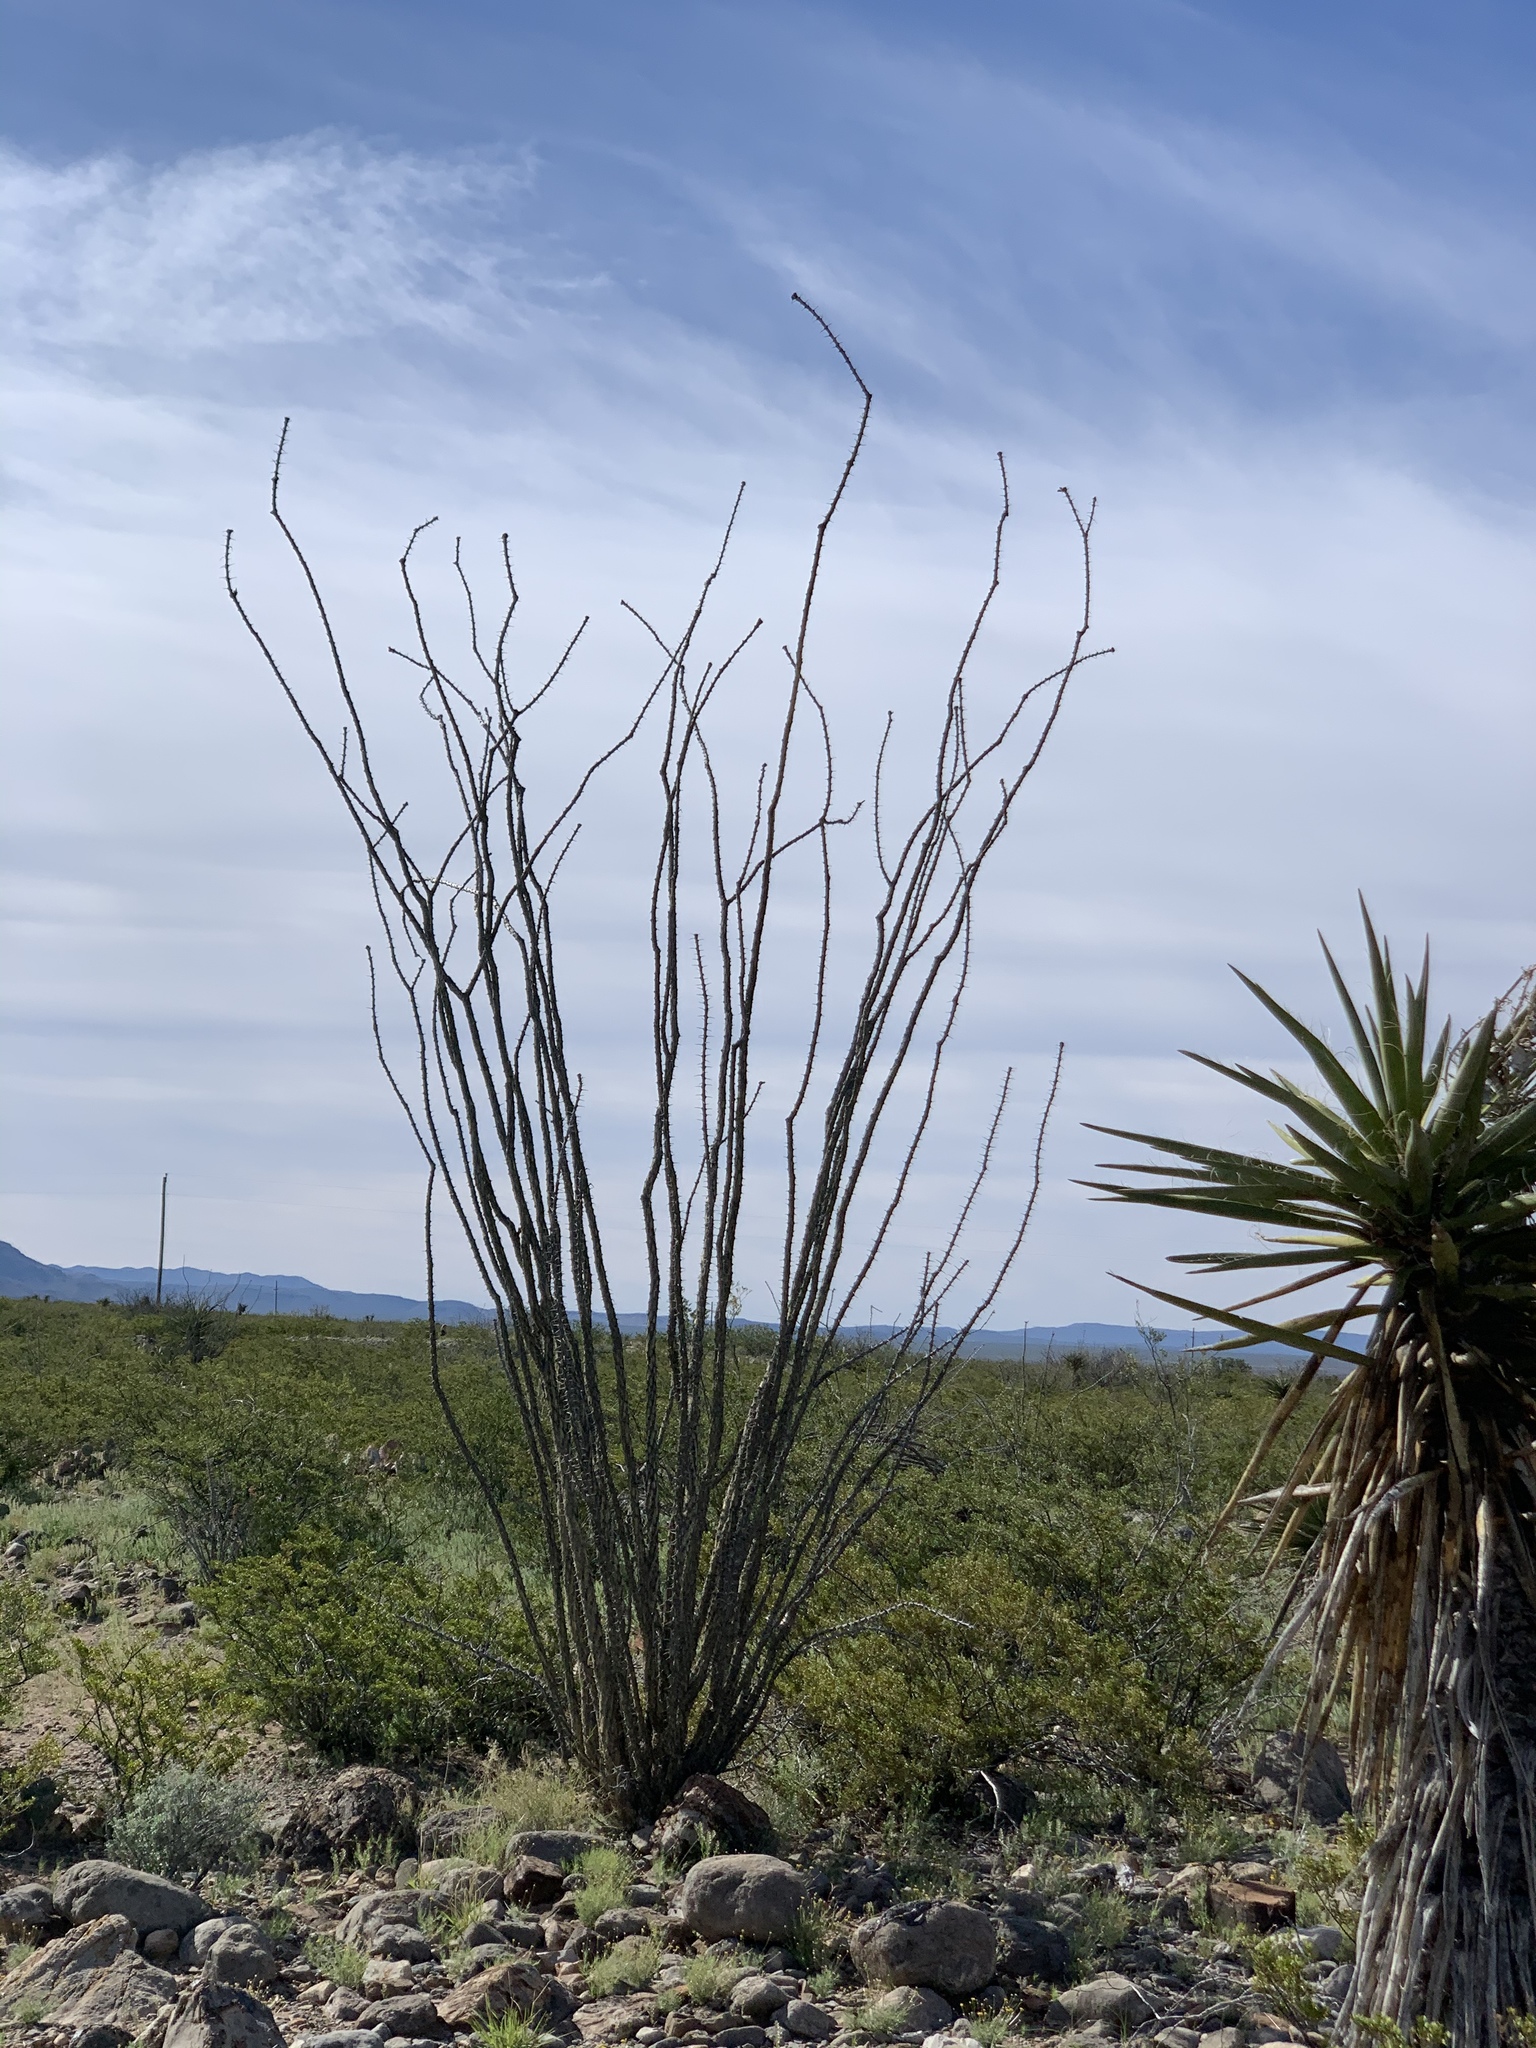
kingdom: Plantae
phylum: Tracheophyta
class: Magnoliopsida
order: Ericales
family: Fouquieriaceae
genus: Fouquieria
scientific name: Fouquieria splendens
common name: Vine-cactus
